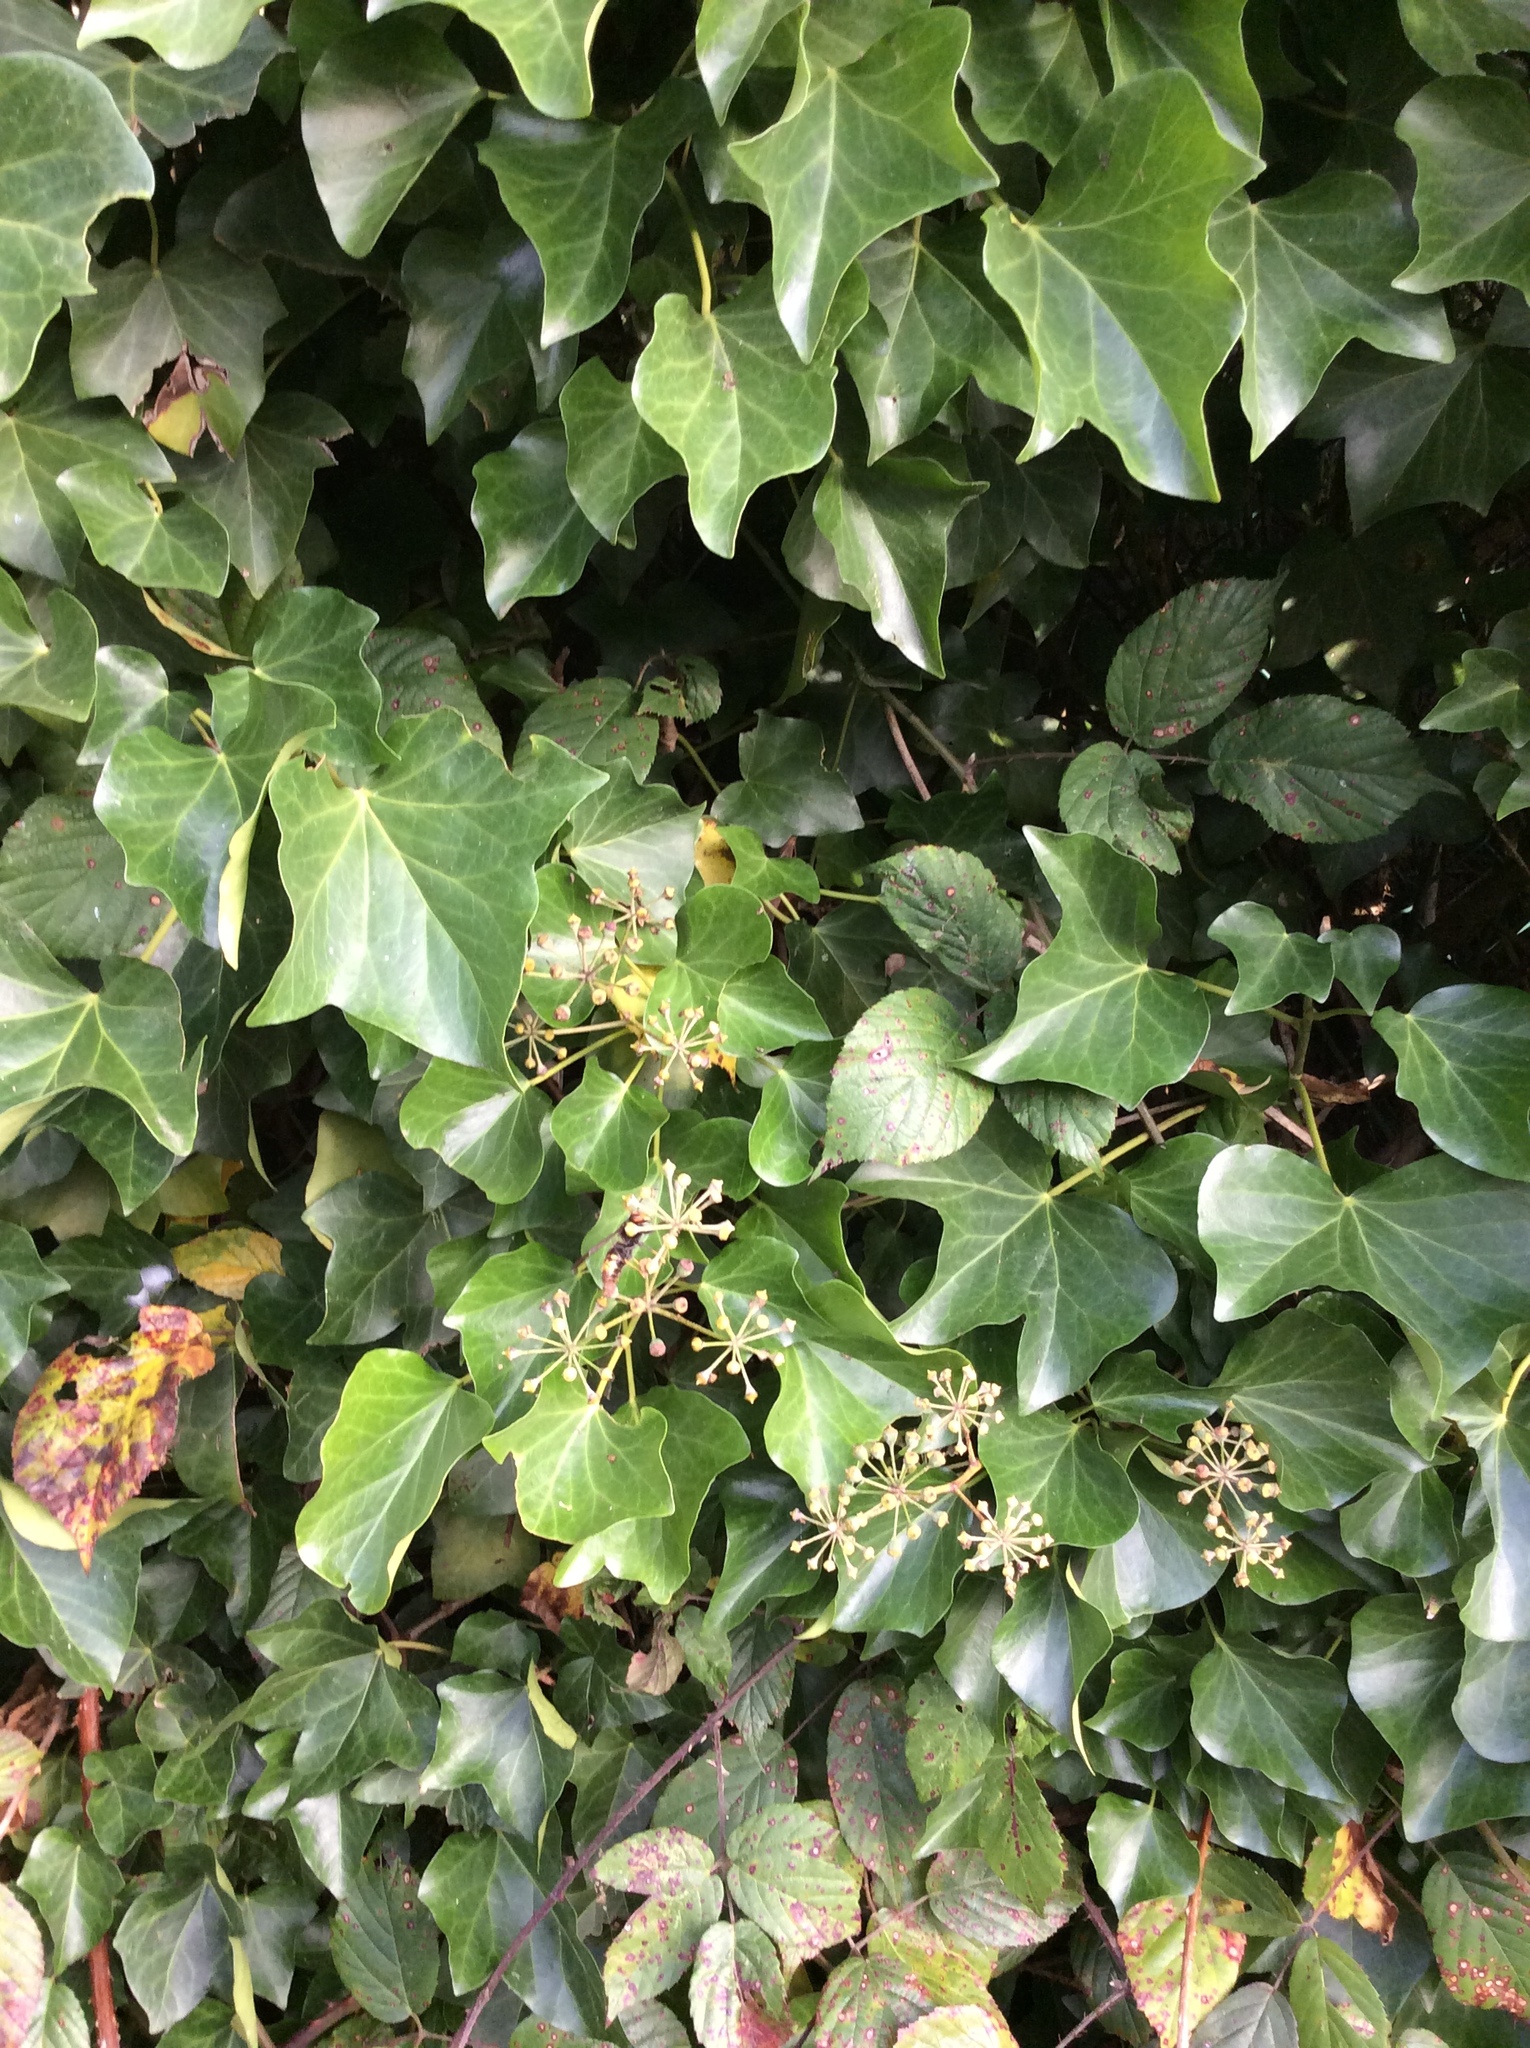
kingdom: Animalia
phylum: Arthropoda
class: Insecta
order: Hymenoptera
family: Vespidae
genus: Vespa
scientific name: Vespa velutina
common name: Asian hornet
